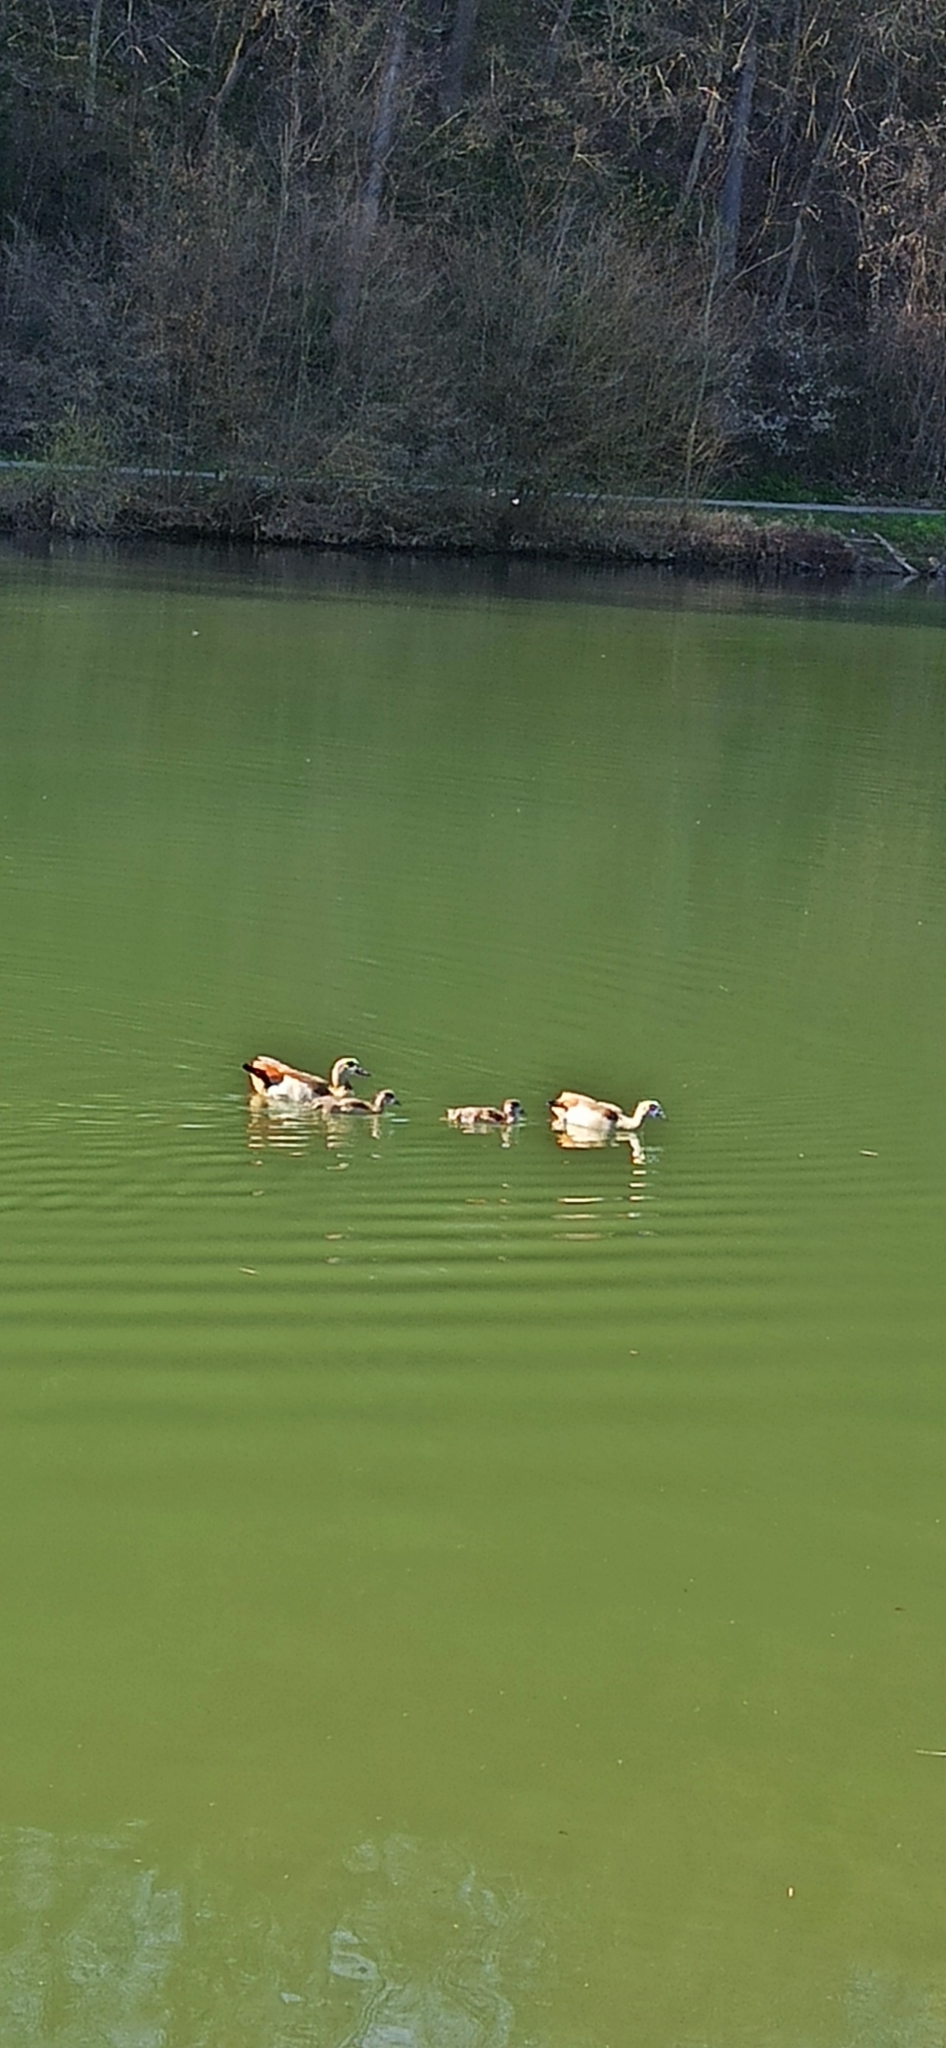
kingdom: Animalia
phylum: Chordata
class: Aves
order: Anseriformes
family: Anatidae
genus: Alopochen
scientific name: Alopochen aegyptiaca
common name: Egyptian goose
